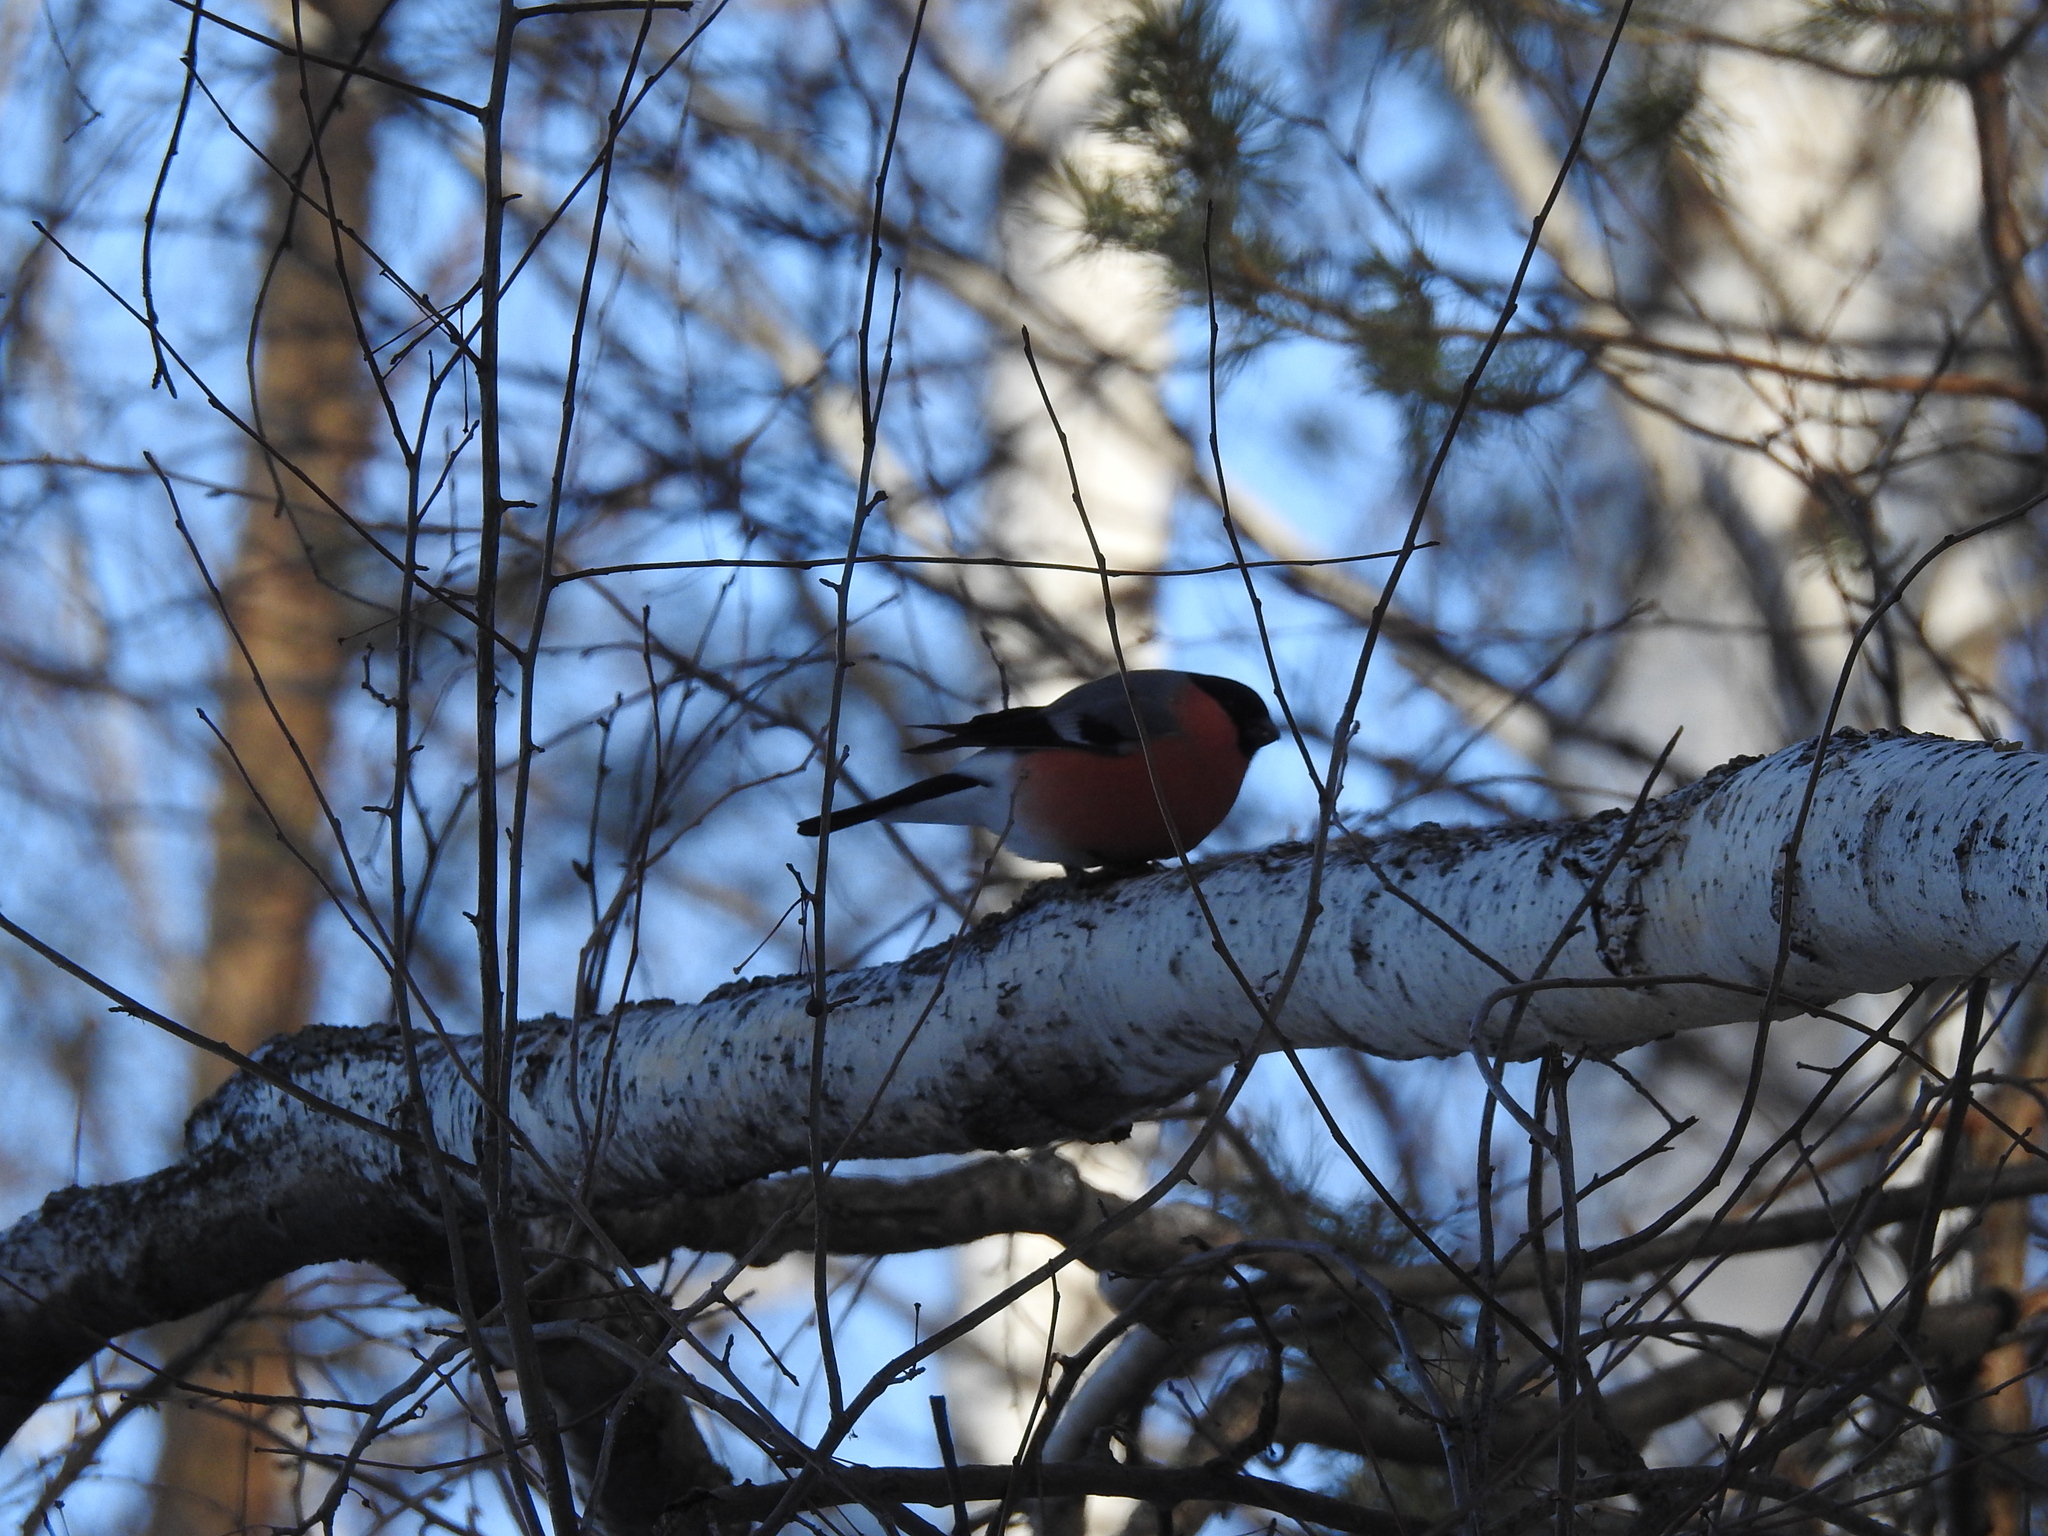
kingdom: Animalia
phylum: Chordata
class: Aves
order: Passeriformes
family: Fringillidae
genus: Pyrrhula
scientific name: Pyrrhula pyrrhula
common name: Eurasian bullfinch
